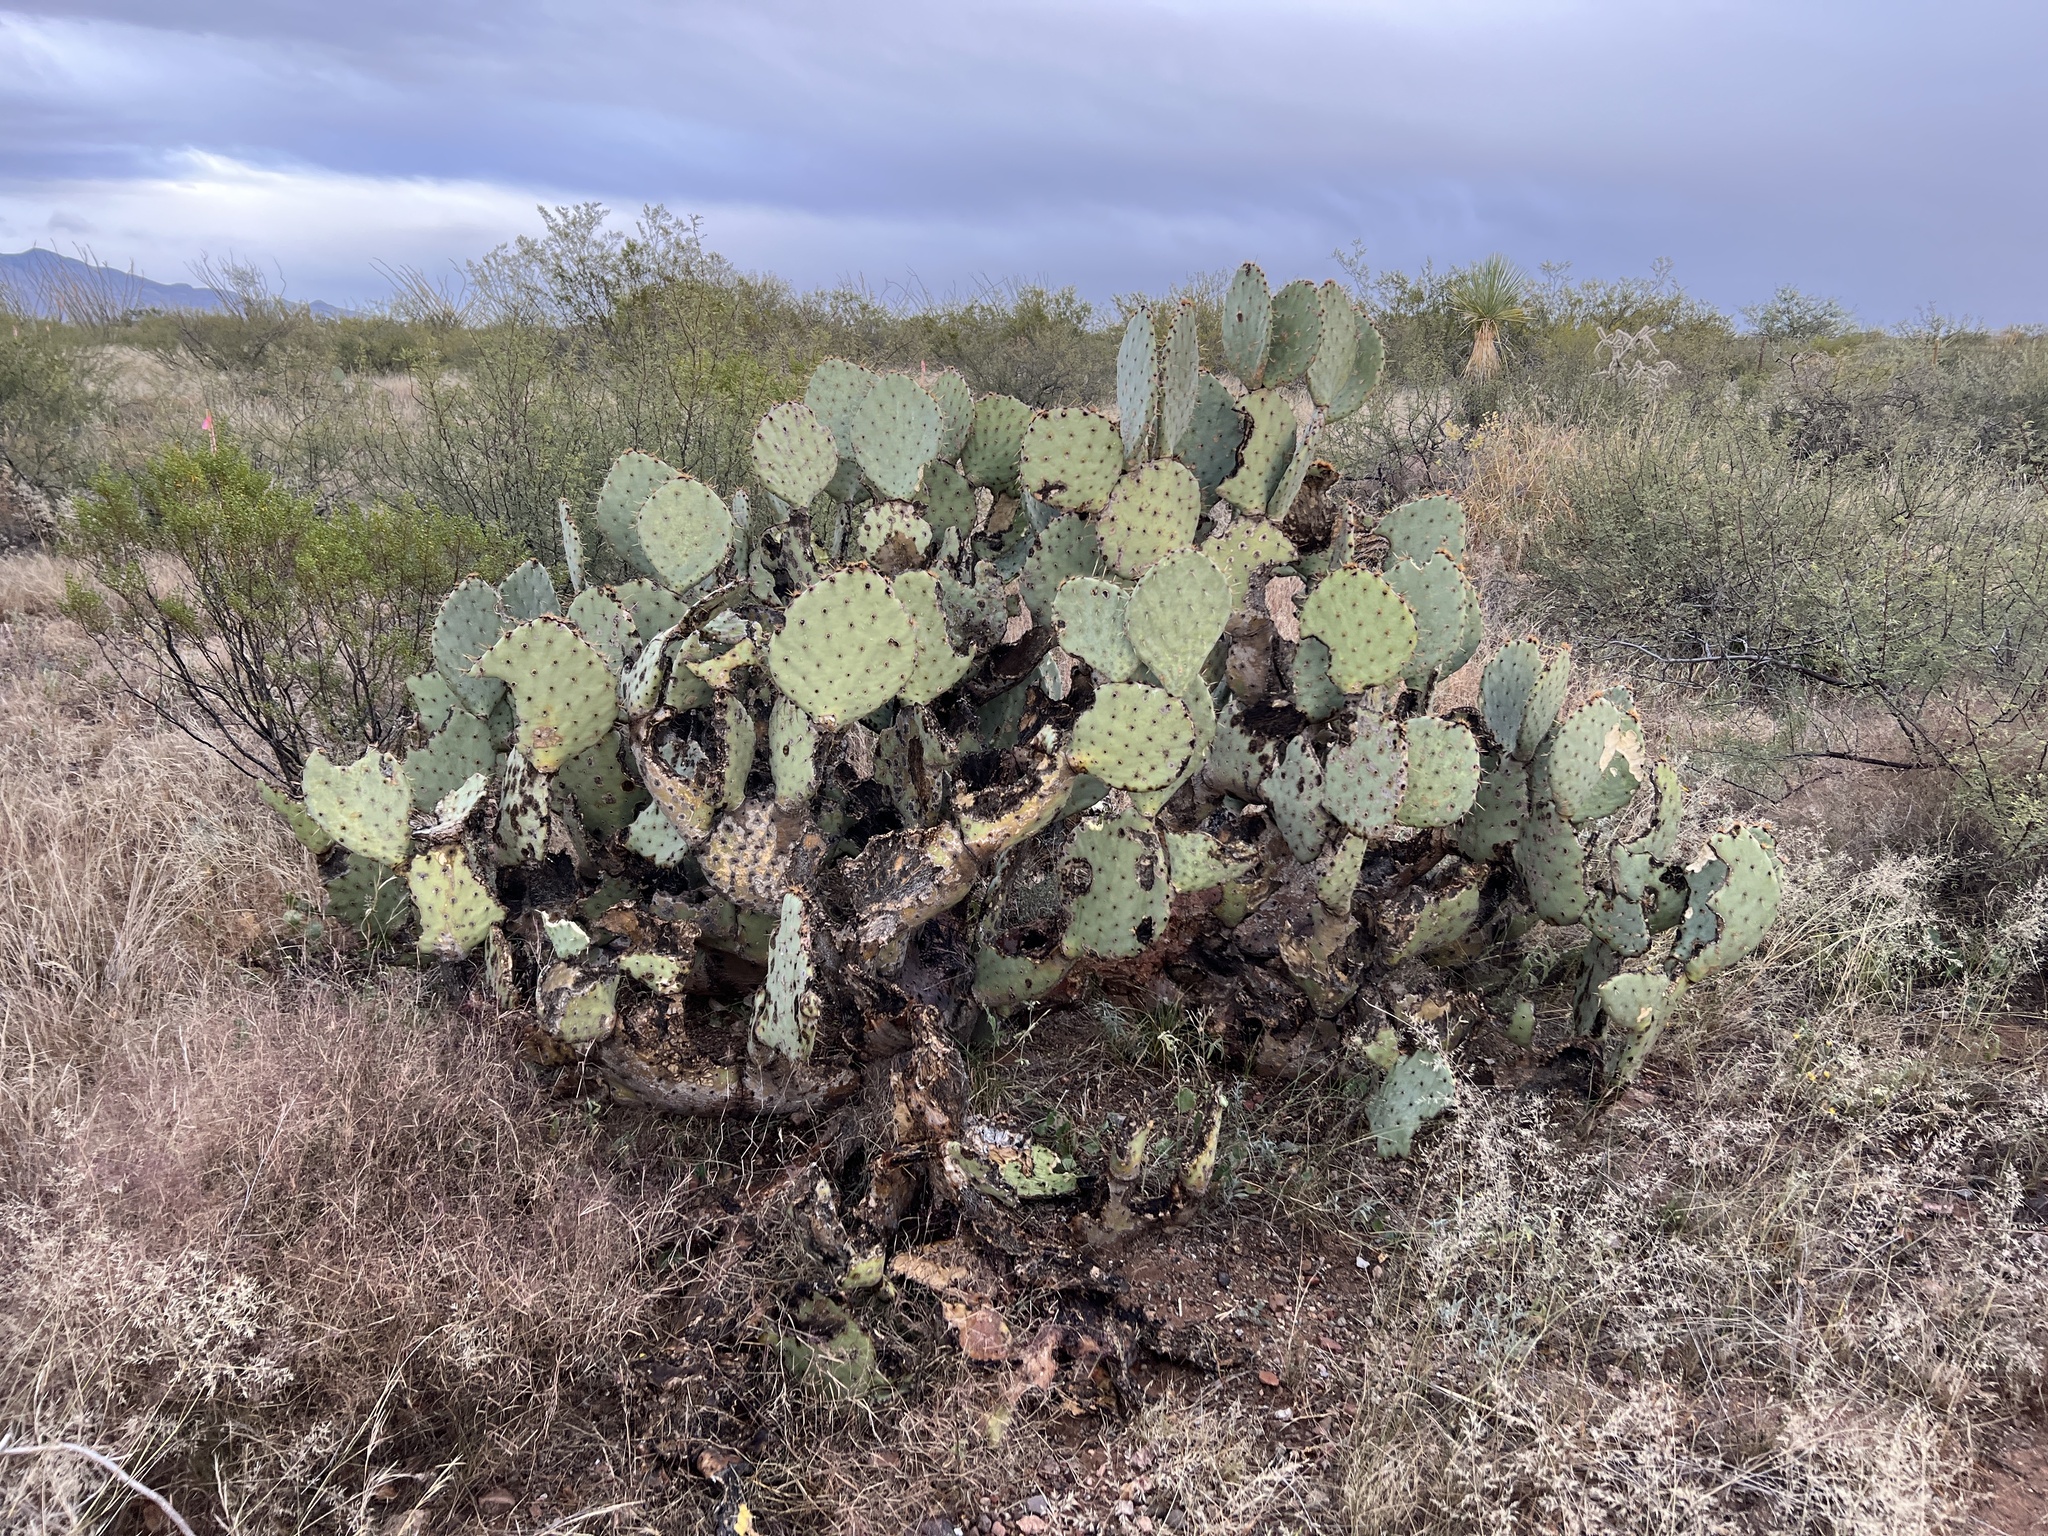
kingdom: Plantae
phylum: Tracheophyta
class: Magnoliopsida
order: Caryophyllales
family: Cactaceae
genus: Opuntia
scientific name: Opuntia engelmannii
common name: Cactus-apple
